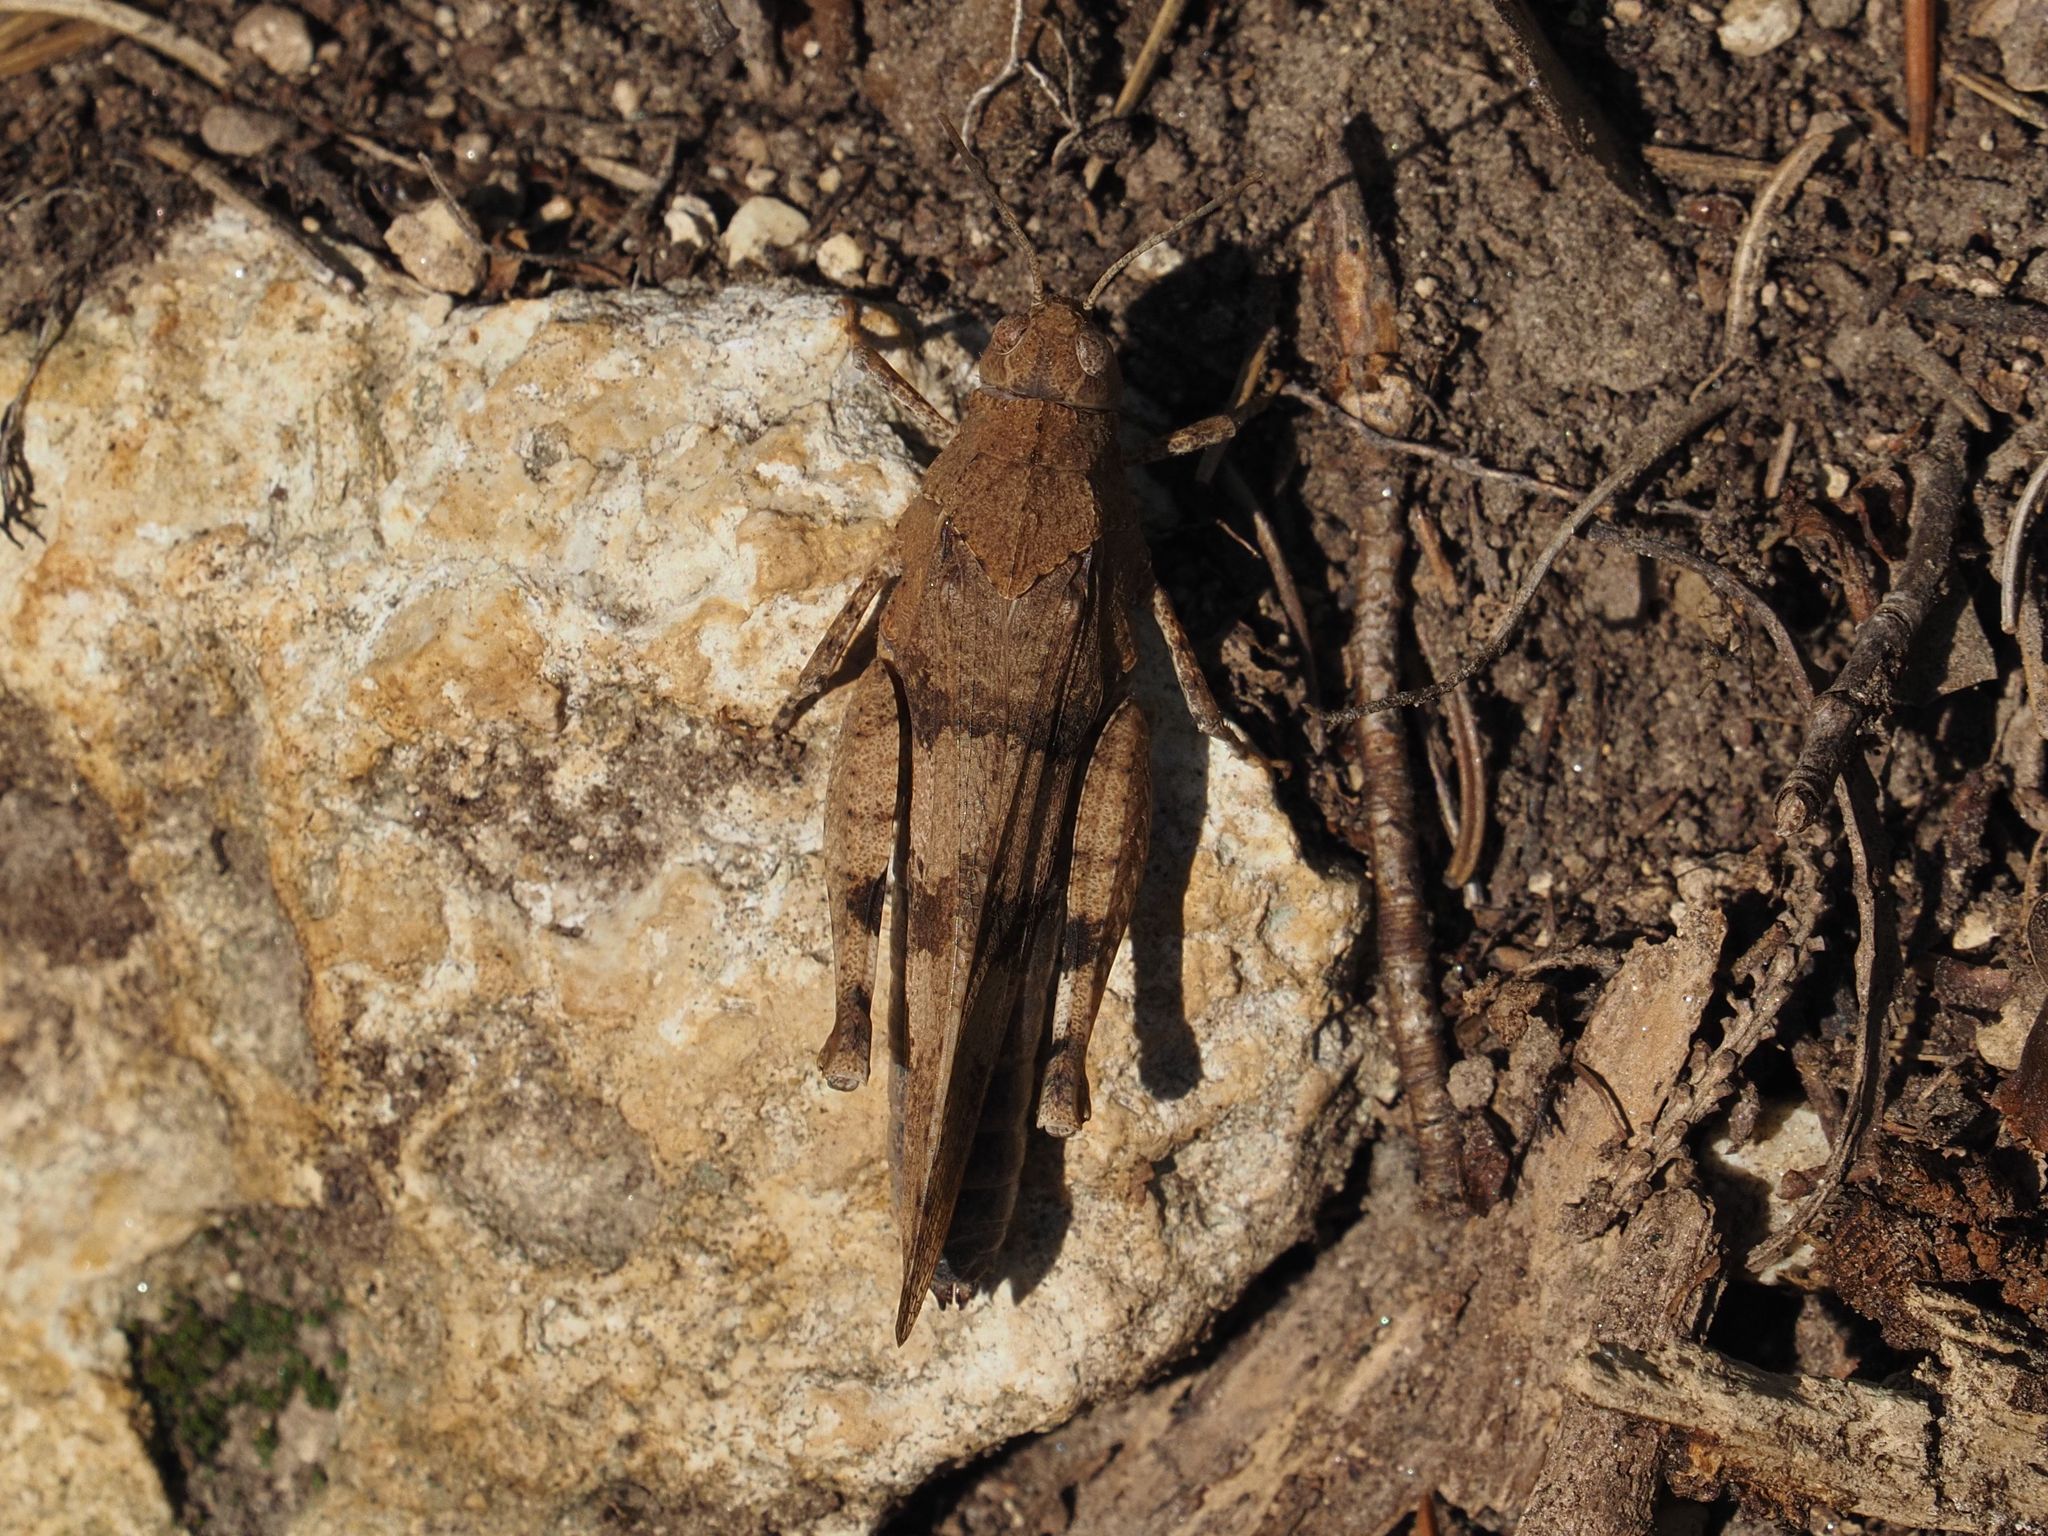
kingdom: Animalia
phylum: Arthropoda
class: Insecta
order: Orthoptera
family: Acrididae
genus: Oedipoda
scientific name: Oedipoda caerulescens
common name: Blue-winged grasshopper
